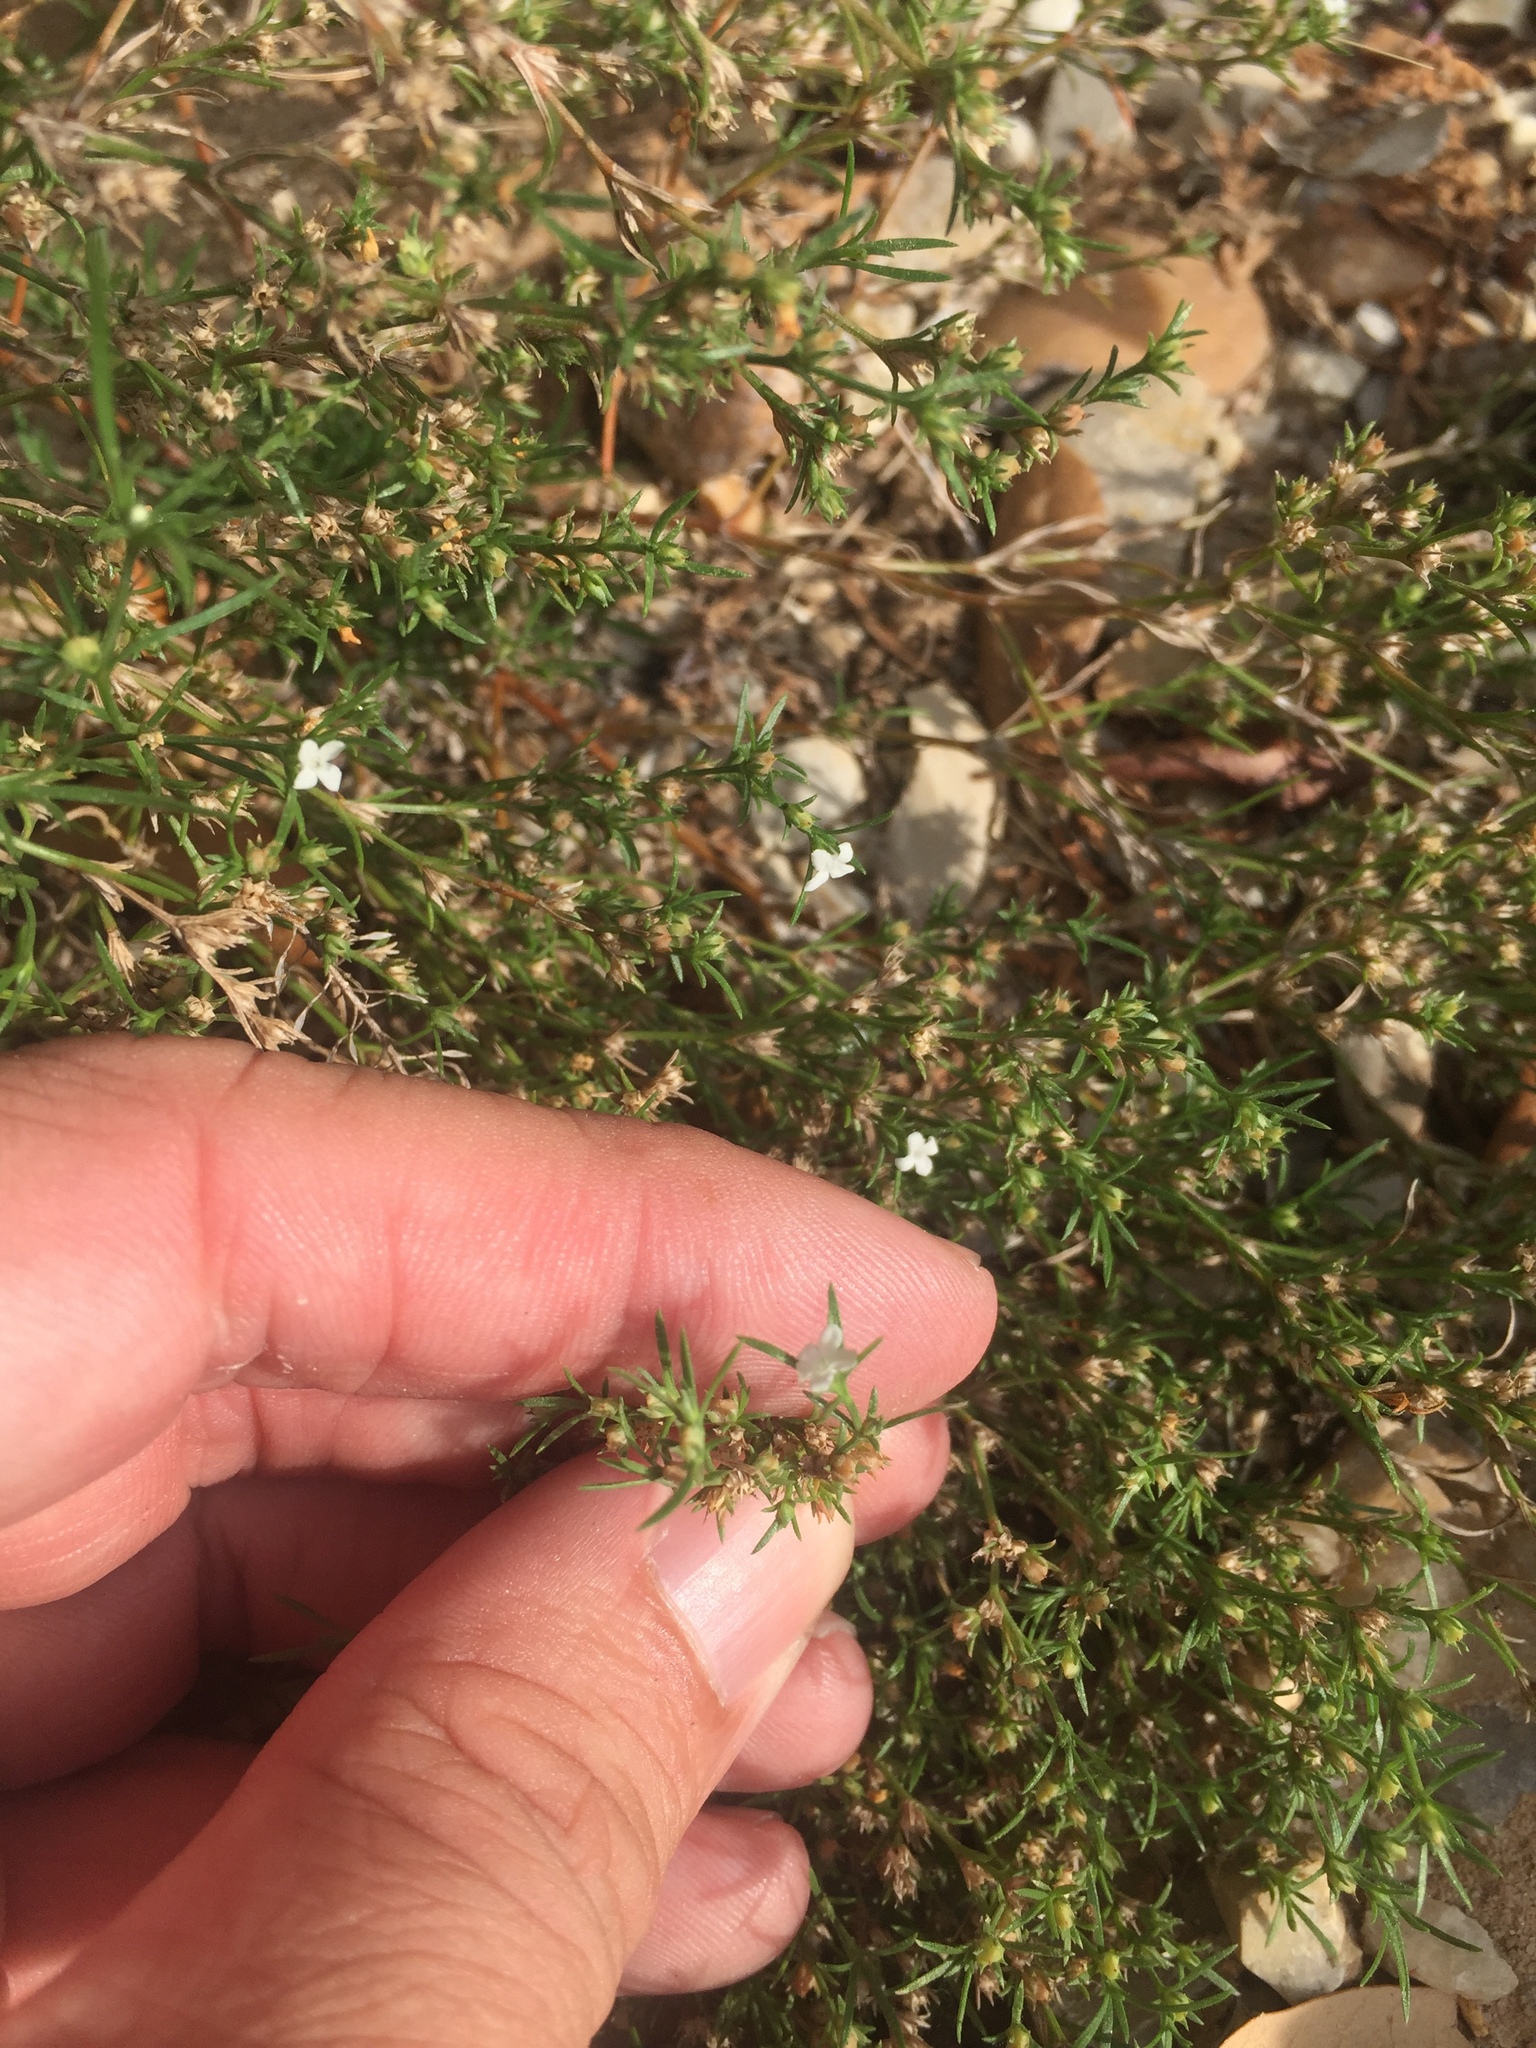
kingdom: Plantae
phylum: Tracheophyta
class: Magnoliopsida
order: Lamiales
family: Tetrachondraceae
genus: Polypremum
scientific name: Polypremum procumbens
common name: Juniper-leaf
